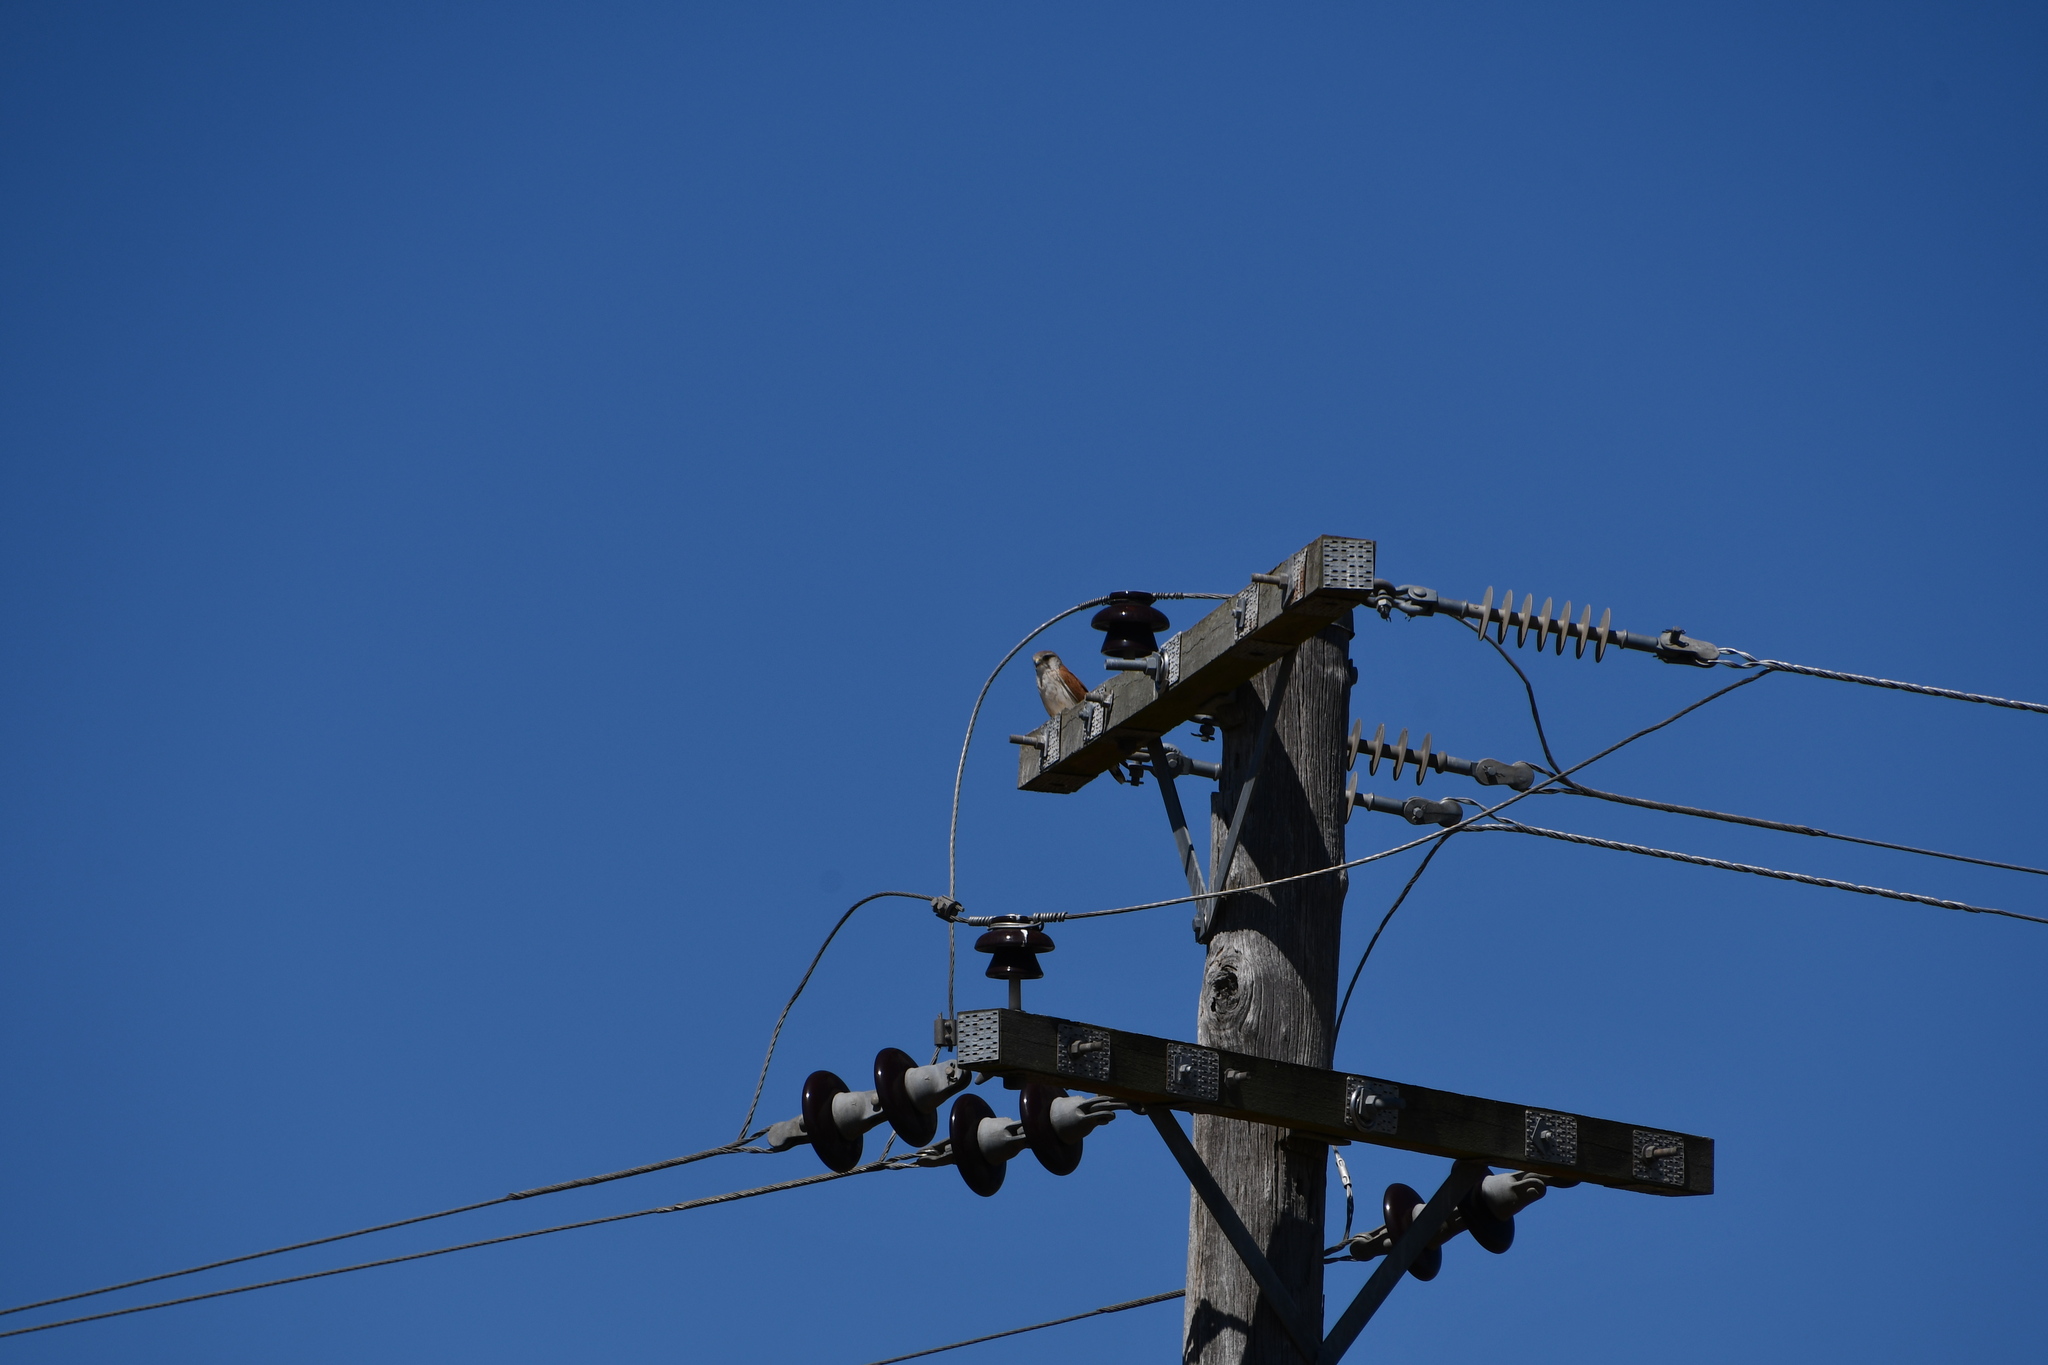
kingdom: Animalia
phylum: Chordata
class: Aves
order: Falconiformes
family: Falconidae
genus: Falco
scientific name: Falco cenchroides
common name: Nankeen kestrel
